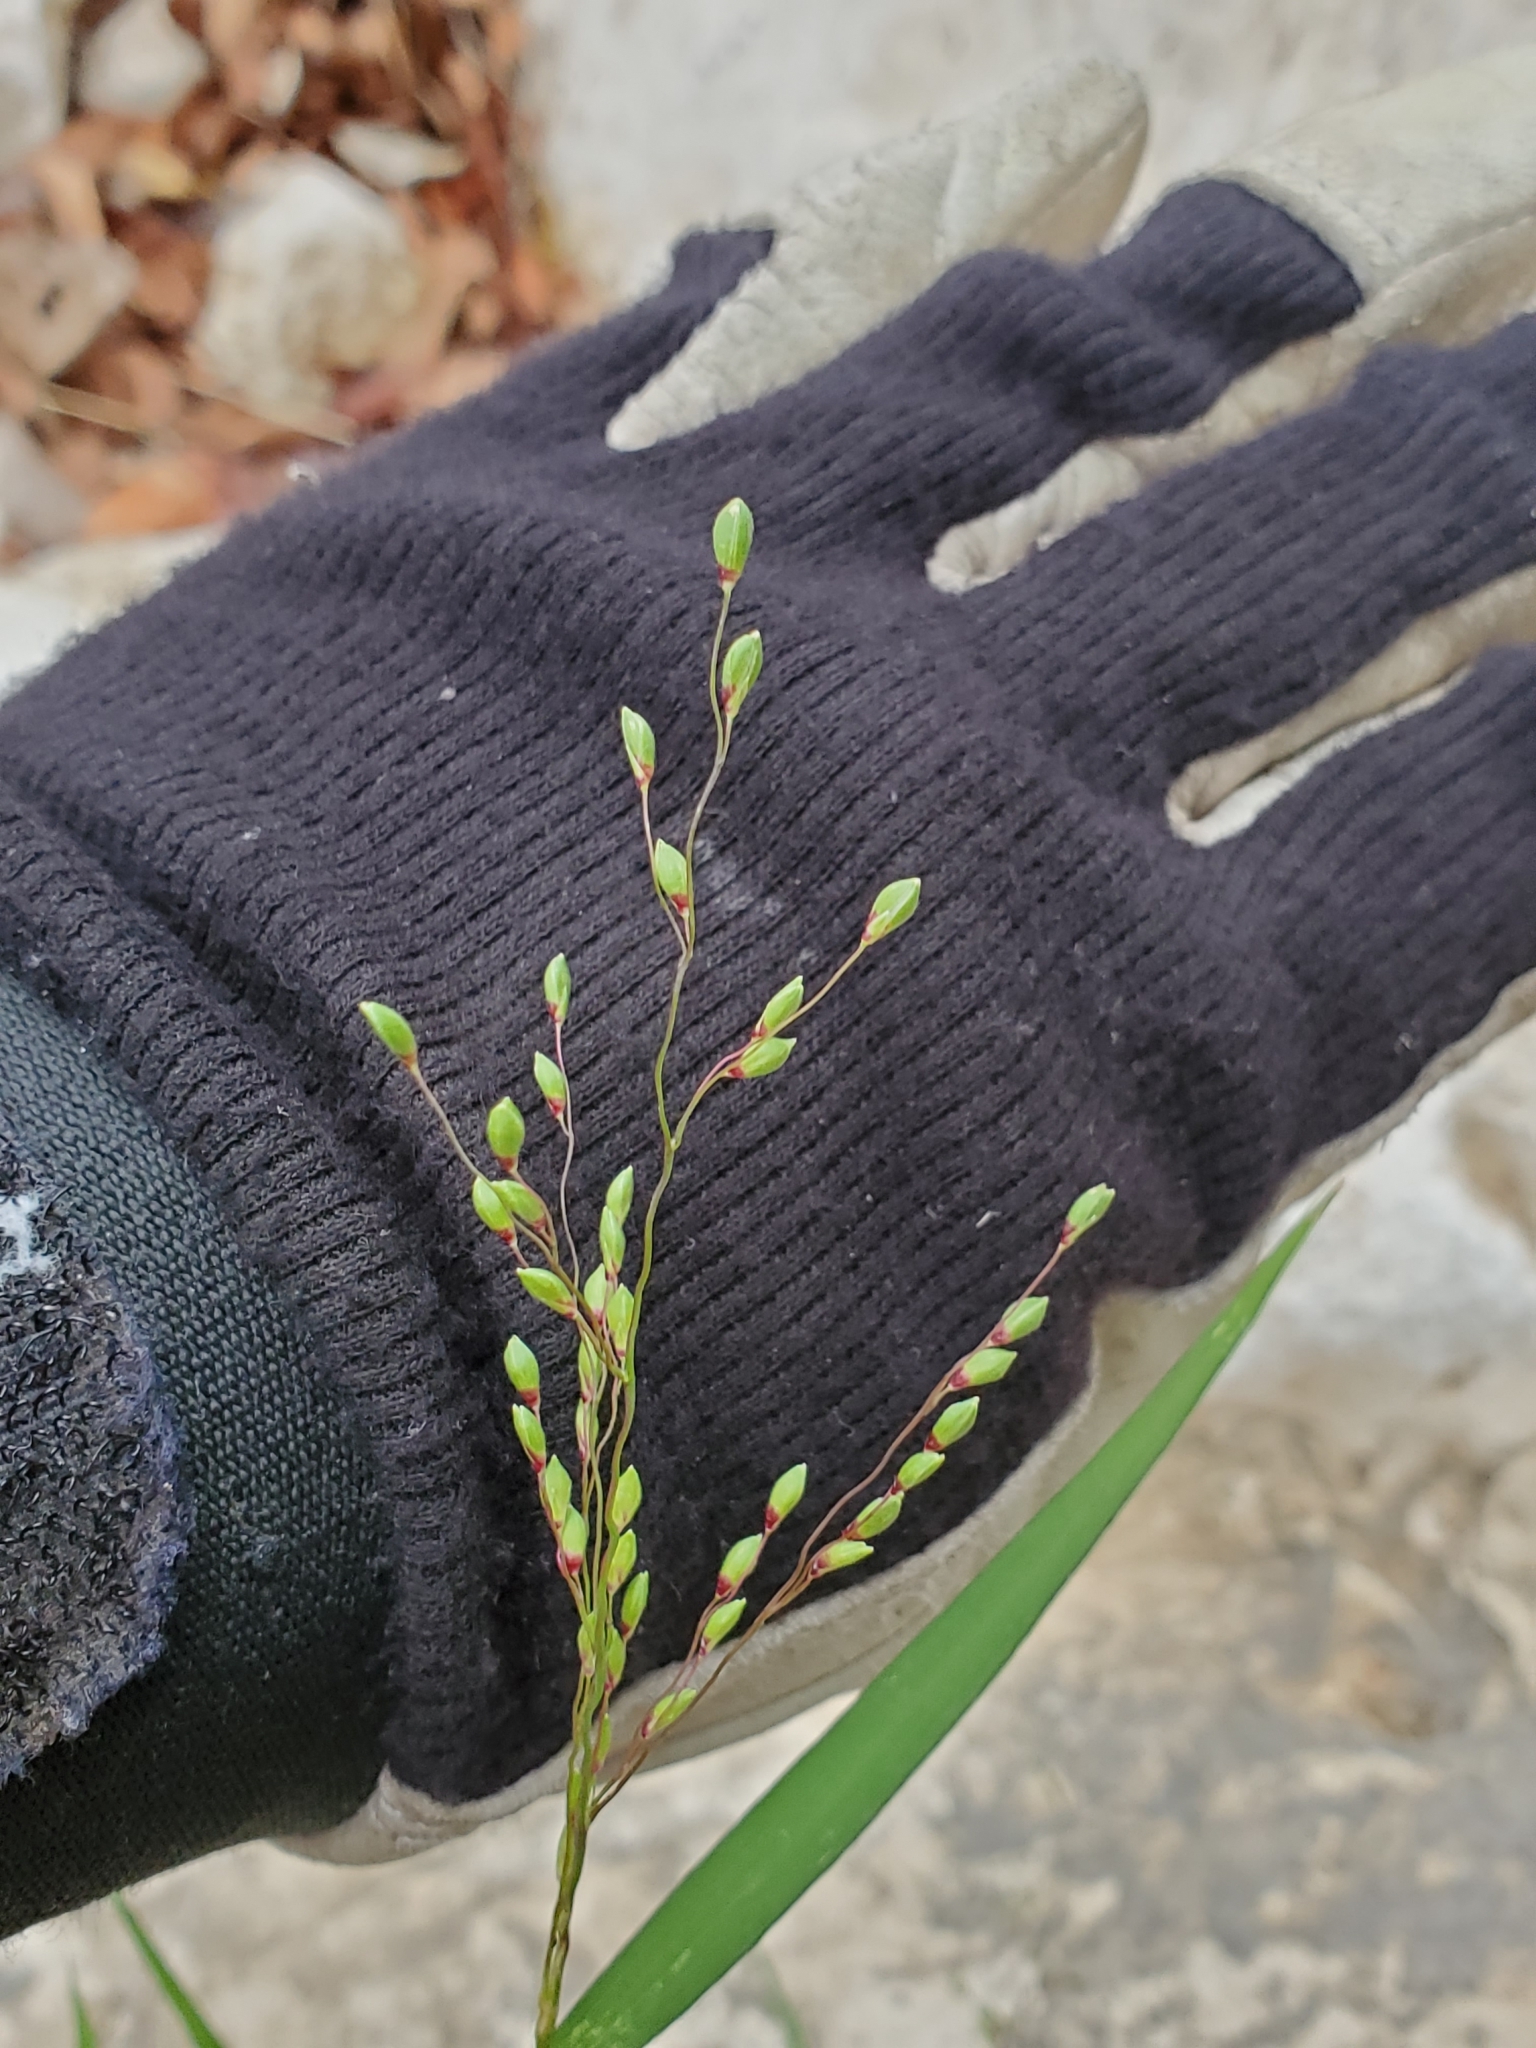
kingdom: Plantae
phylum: Tracheophyta
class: Liliopsida
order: Poales
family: Poaceae
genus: Dichanthelium
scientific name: Dichanthelium oligosanthes
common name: Few-anther obscuregrass
